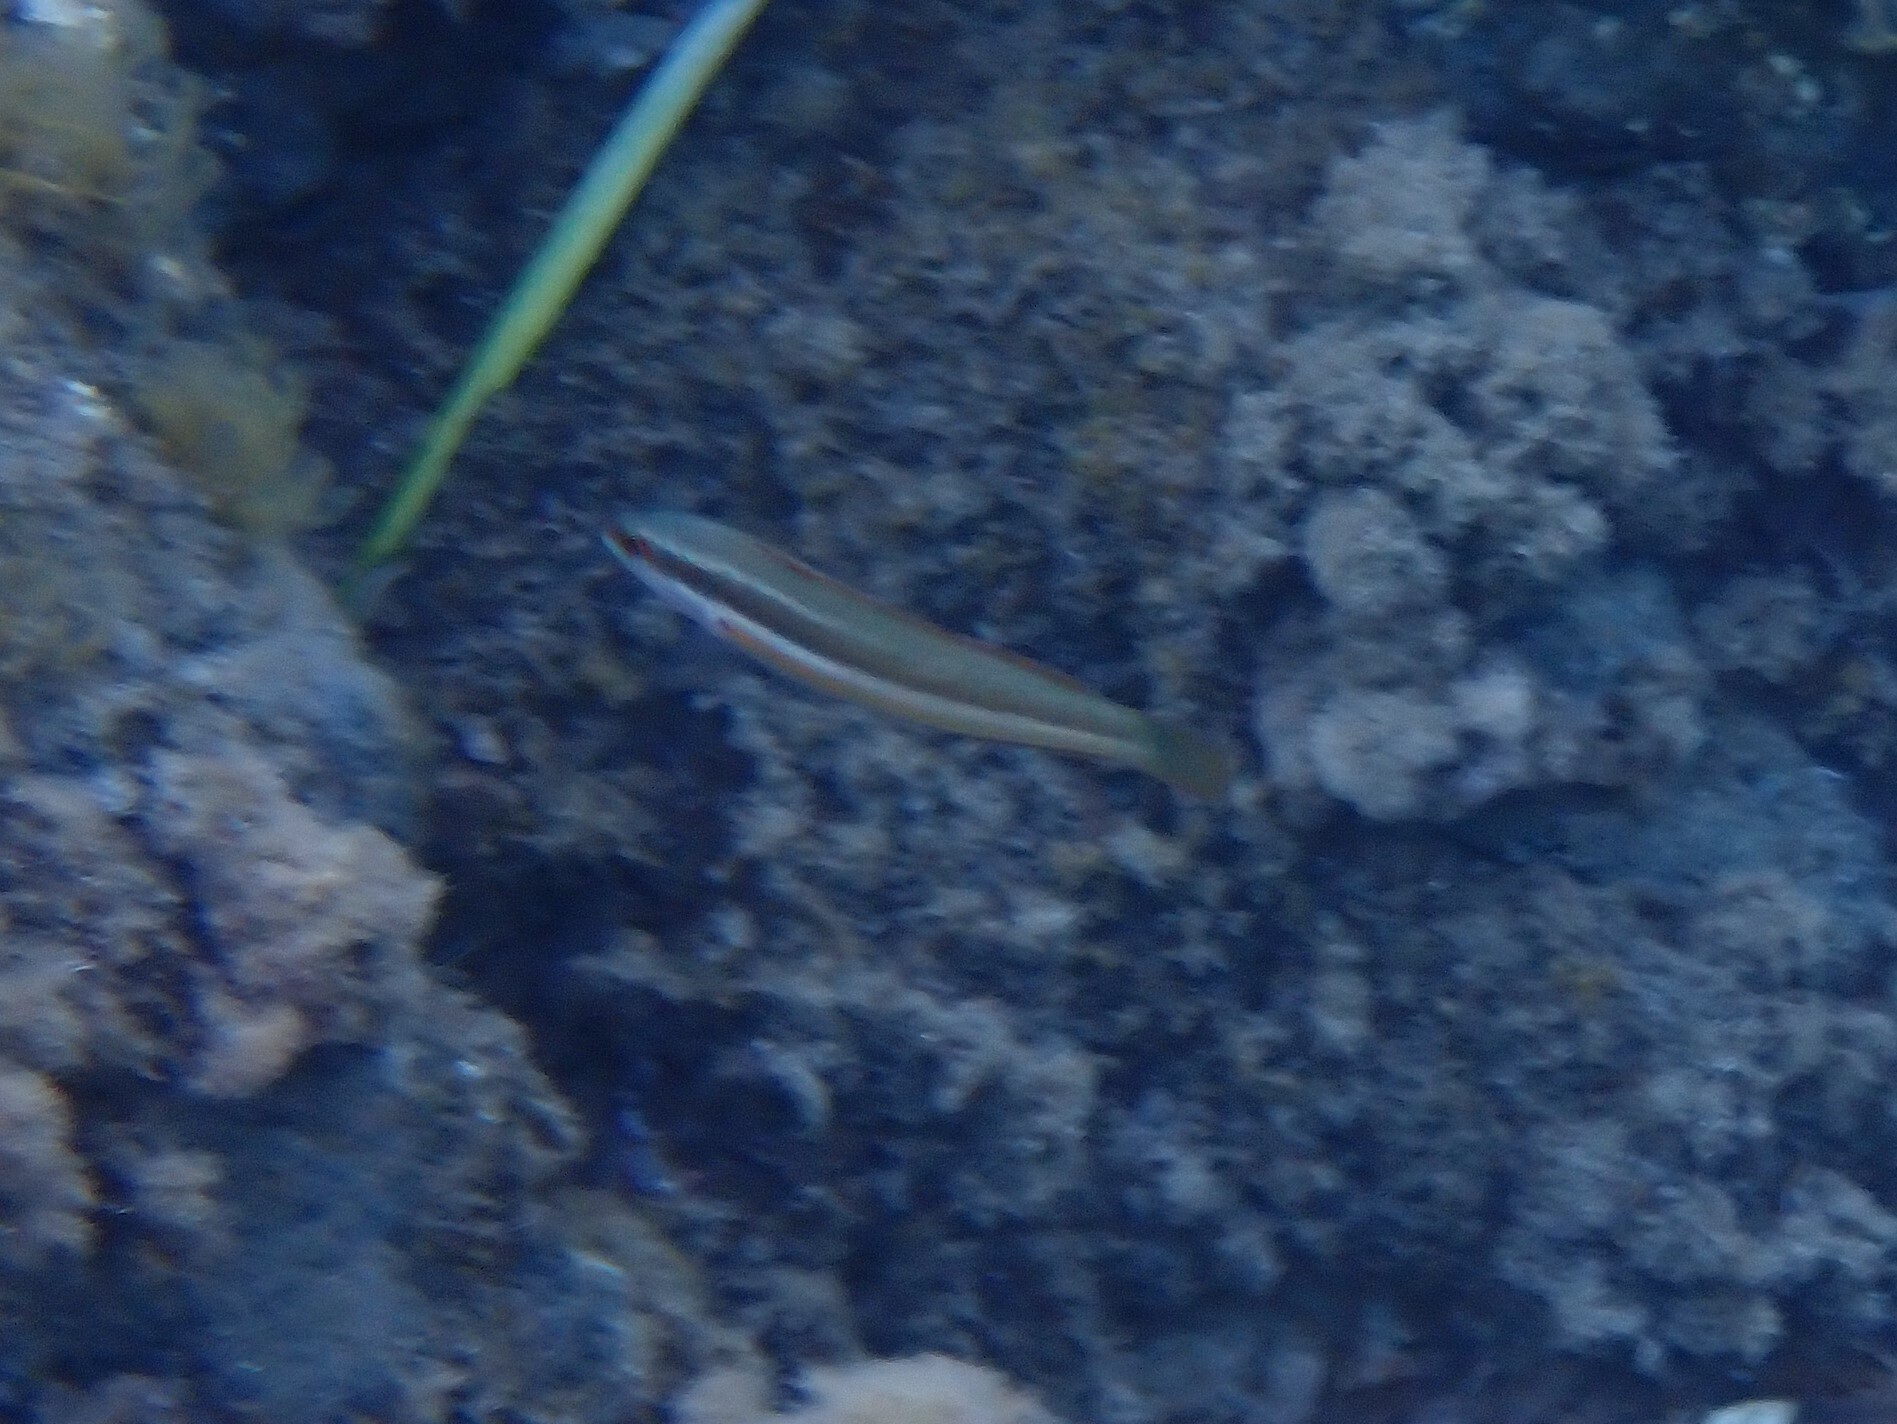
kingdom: Animalia
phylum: Chordata
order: Perciformes
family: Labridae
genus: Coris
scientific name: Coris julis
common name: Rainbow wrasse
